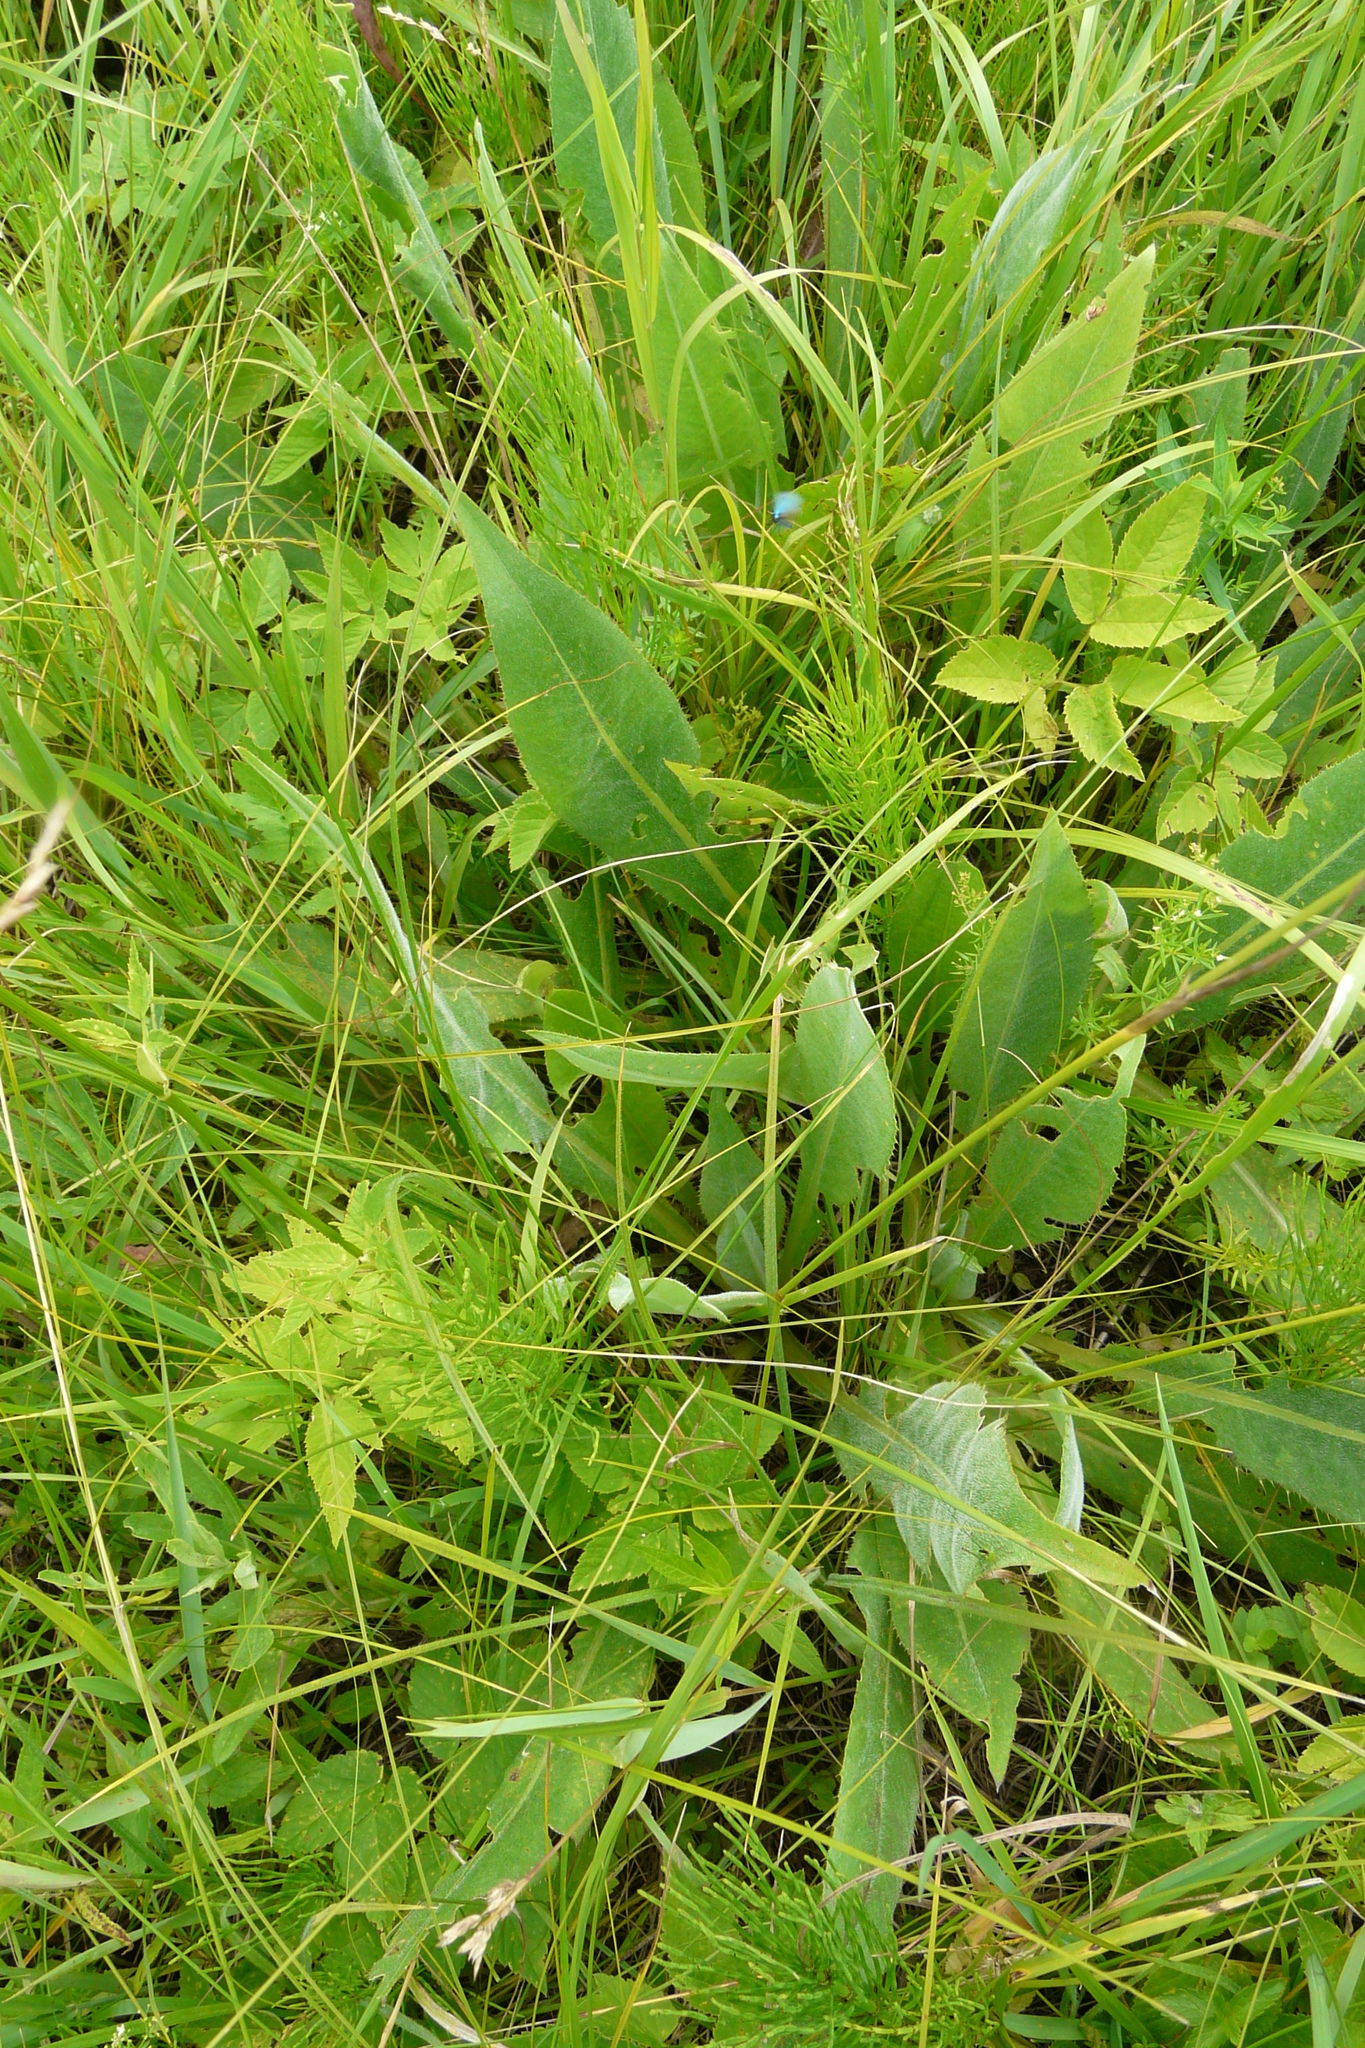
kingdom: Plantae
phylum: Tracheophyta
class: Magnoliopsida
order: Asterales
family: Asteraceae
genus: Cirsium
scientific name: Cirsium canum
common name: Queen anne's thistle
